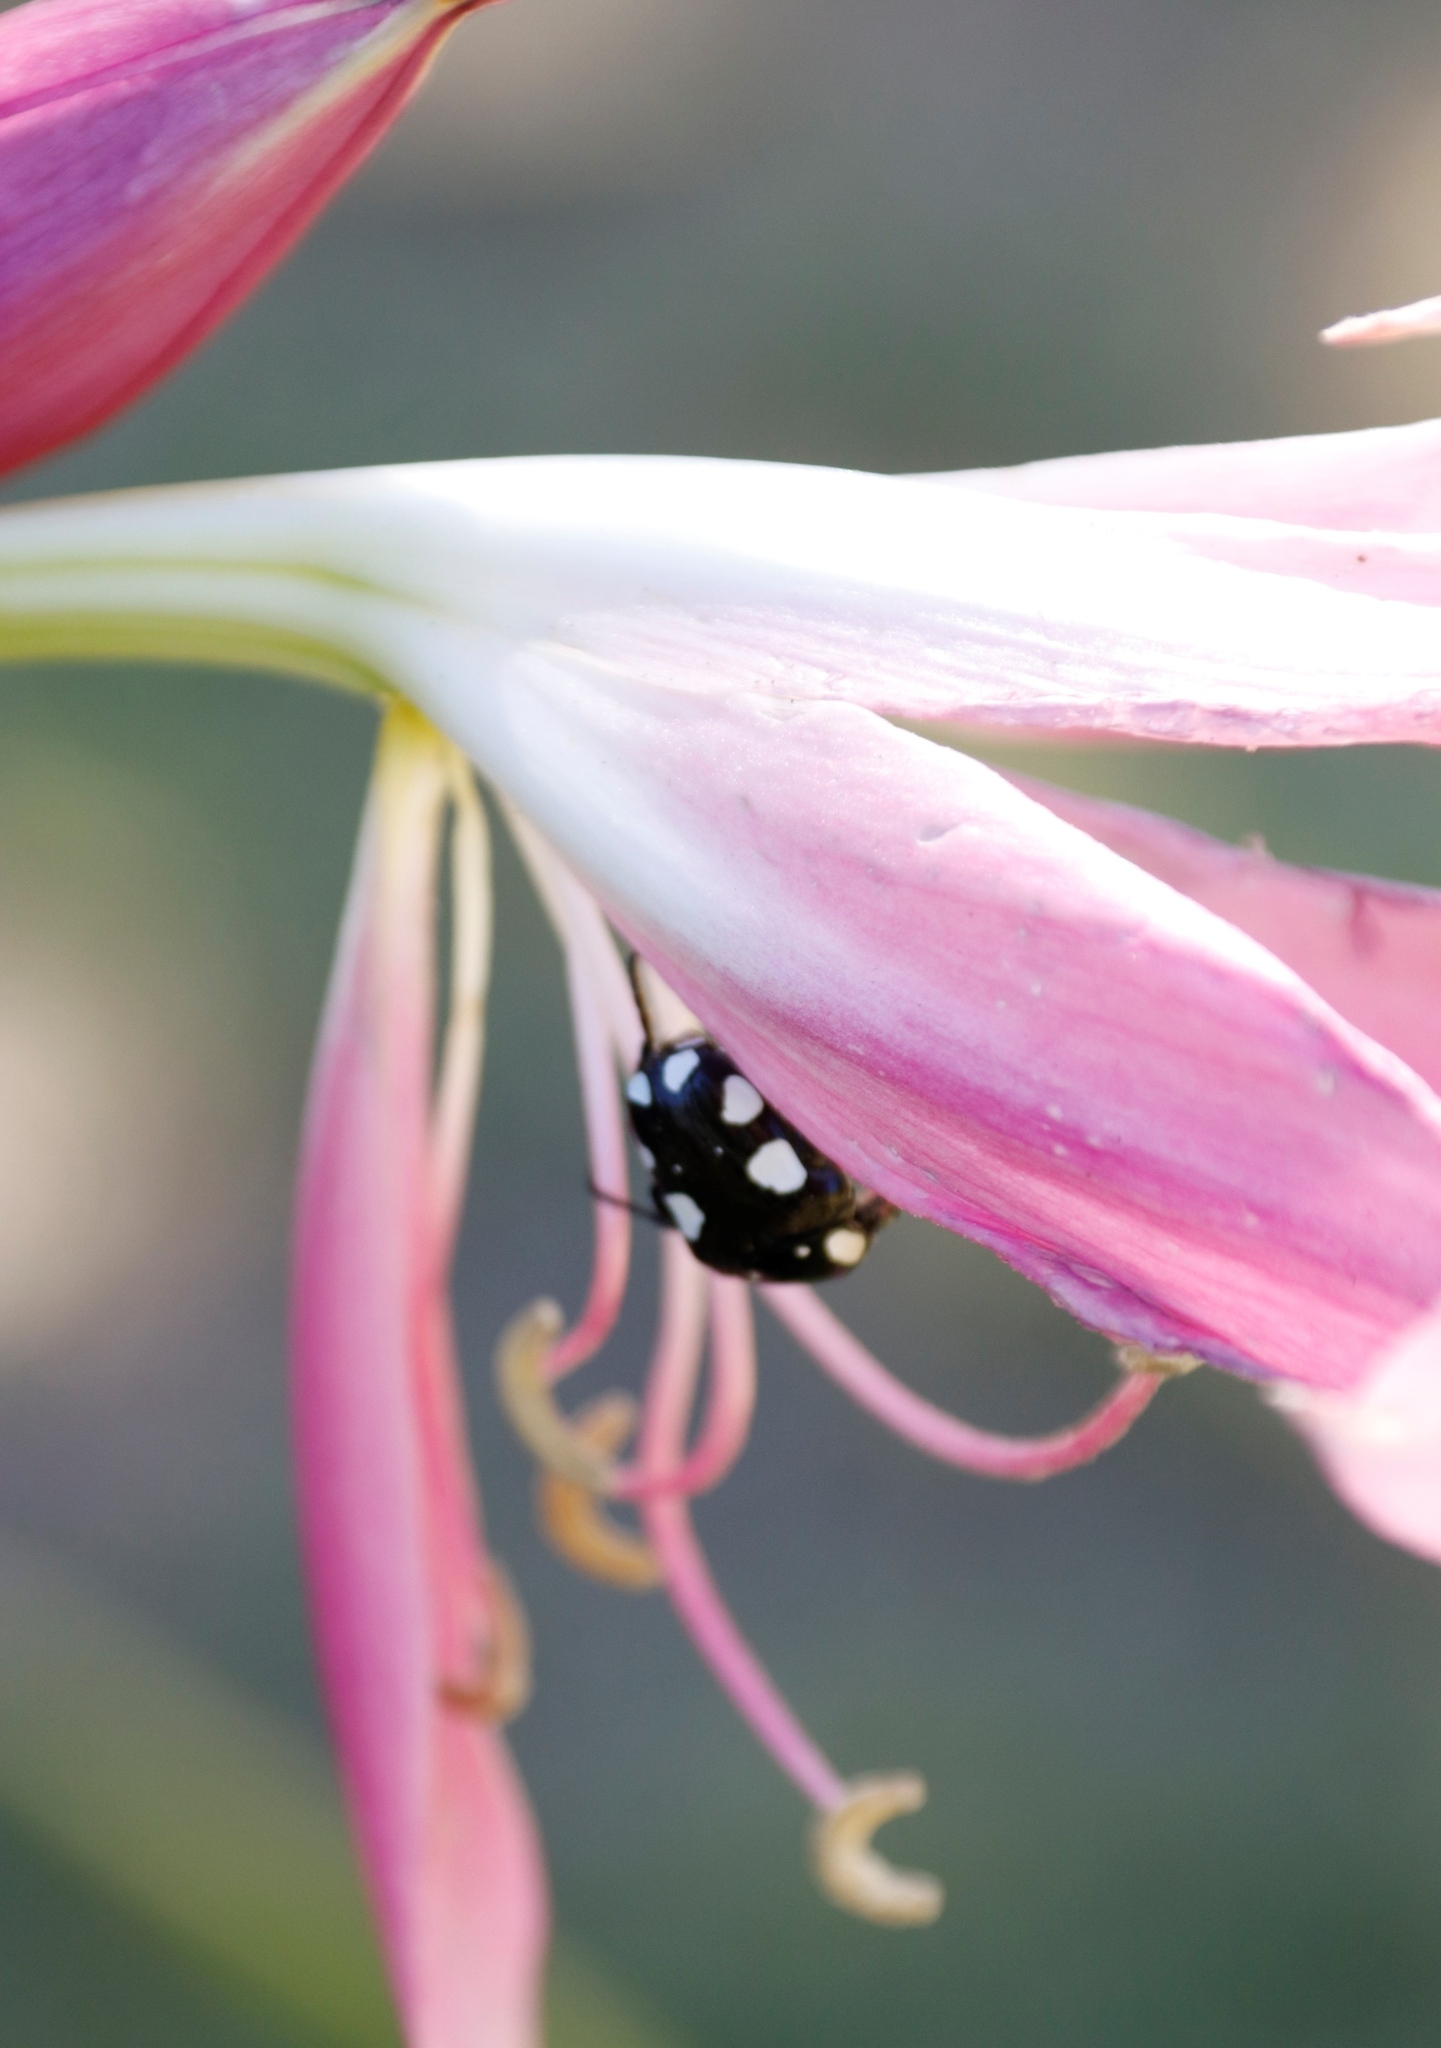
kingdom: Animalia
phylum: Arthropoda
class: Insecta
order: Coleoptera
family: Scarabaeidae
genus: Mausoleopsis
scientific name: Mausoleopsis amabilis
